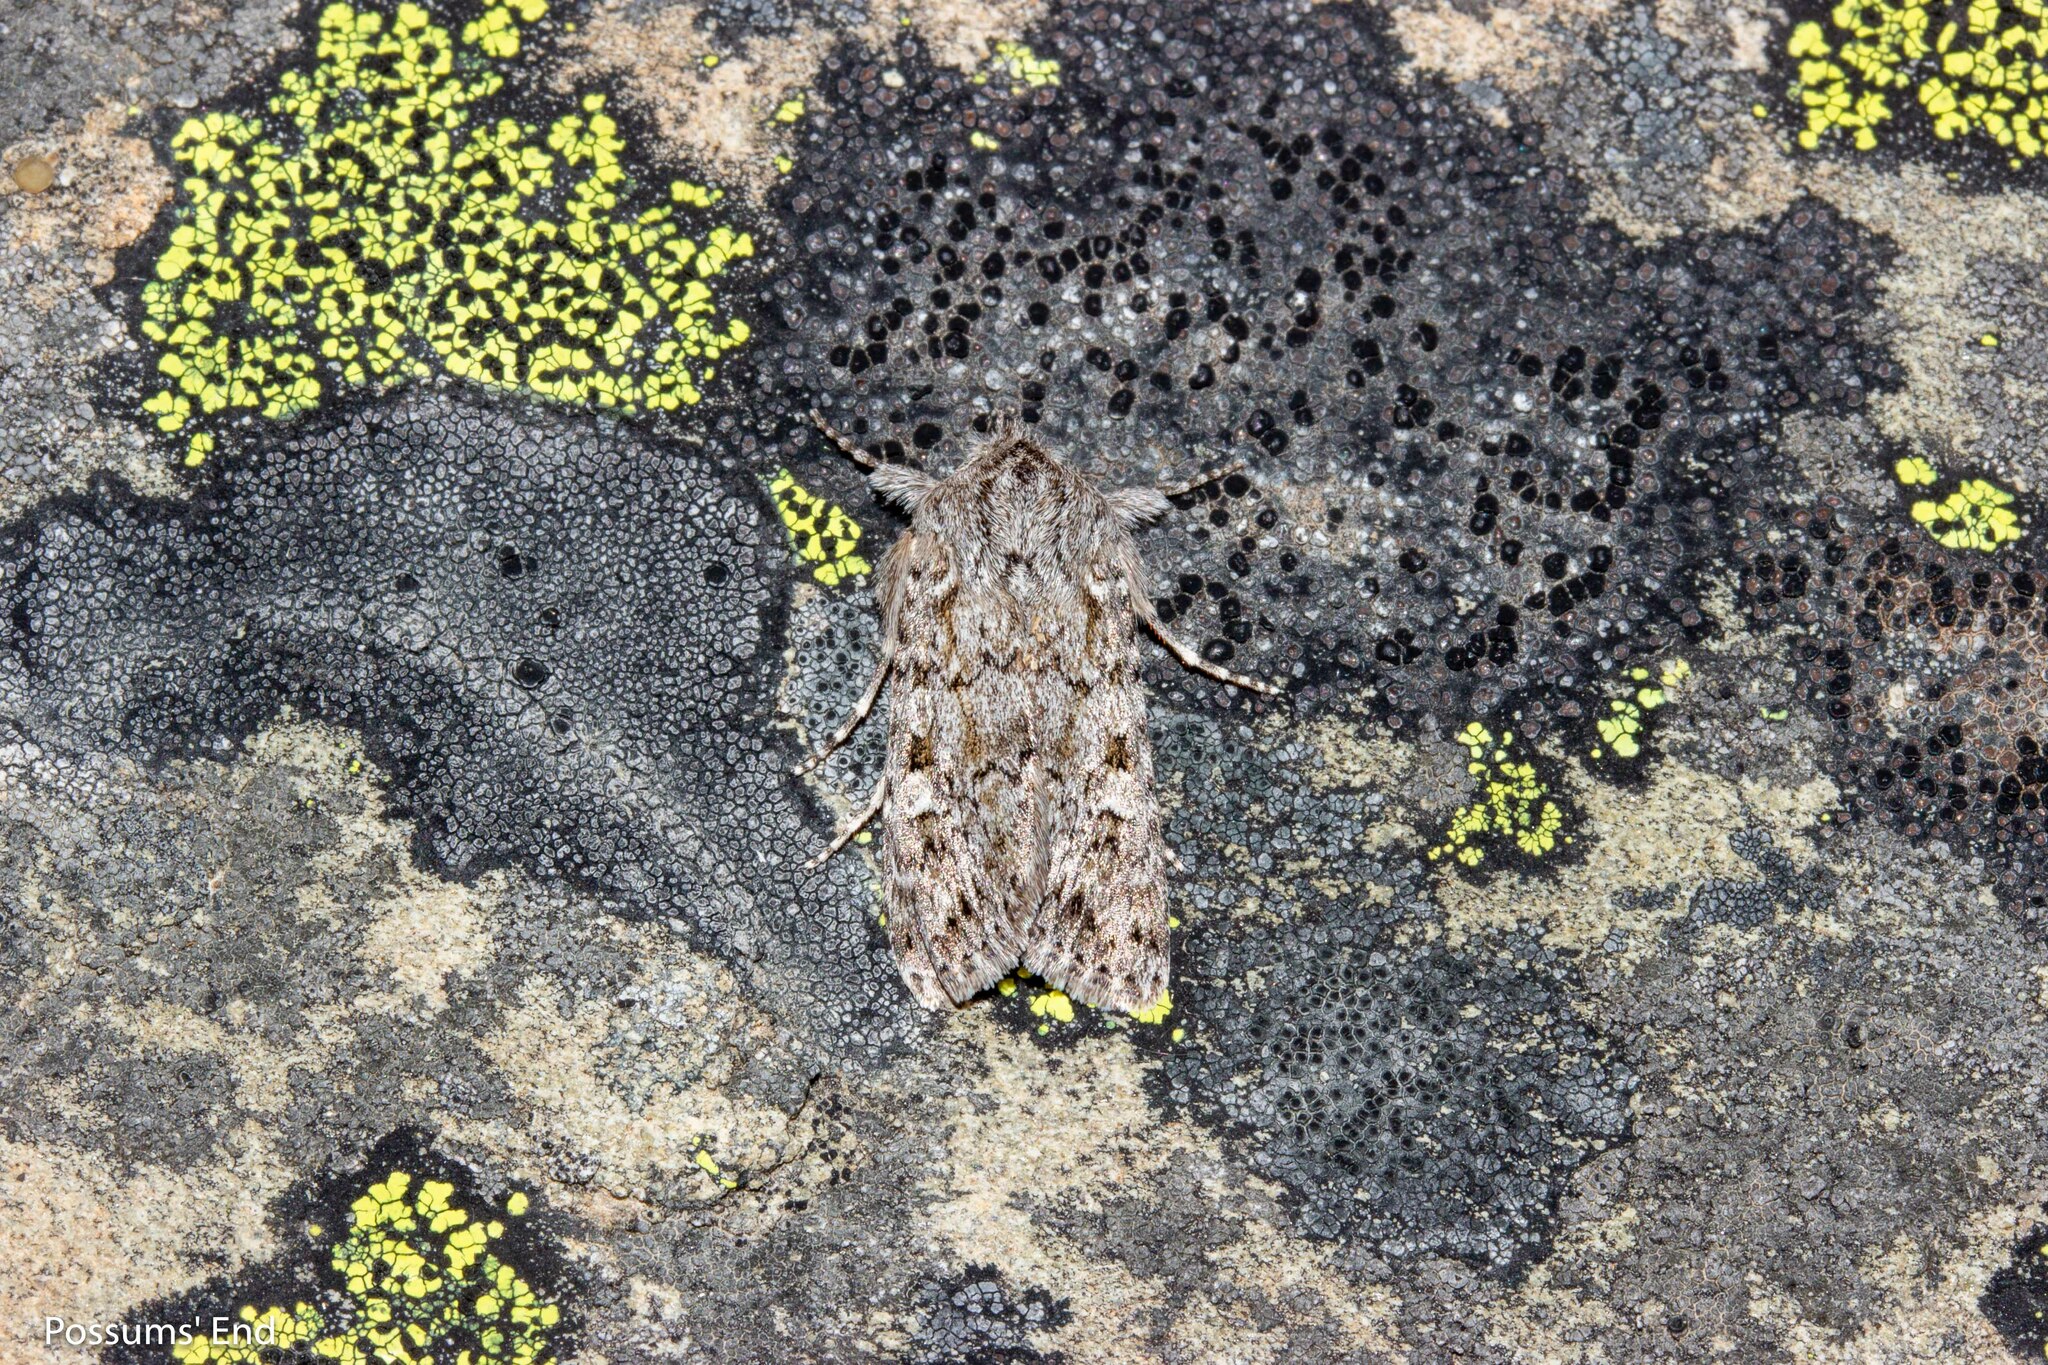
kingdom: Animalia
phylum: Arthropoda
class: Insecta
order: Lepidoptera
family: Noctuidae
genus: Physetica
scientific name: Physetica cucullina
